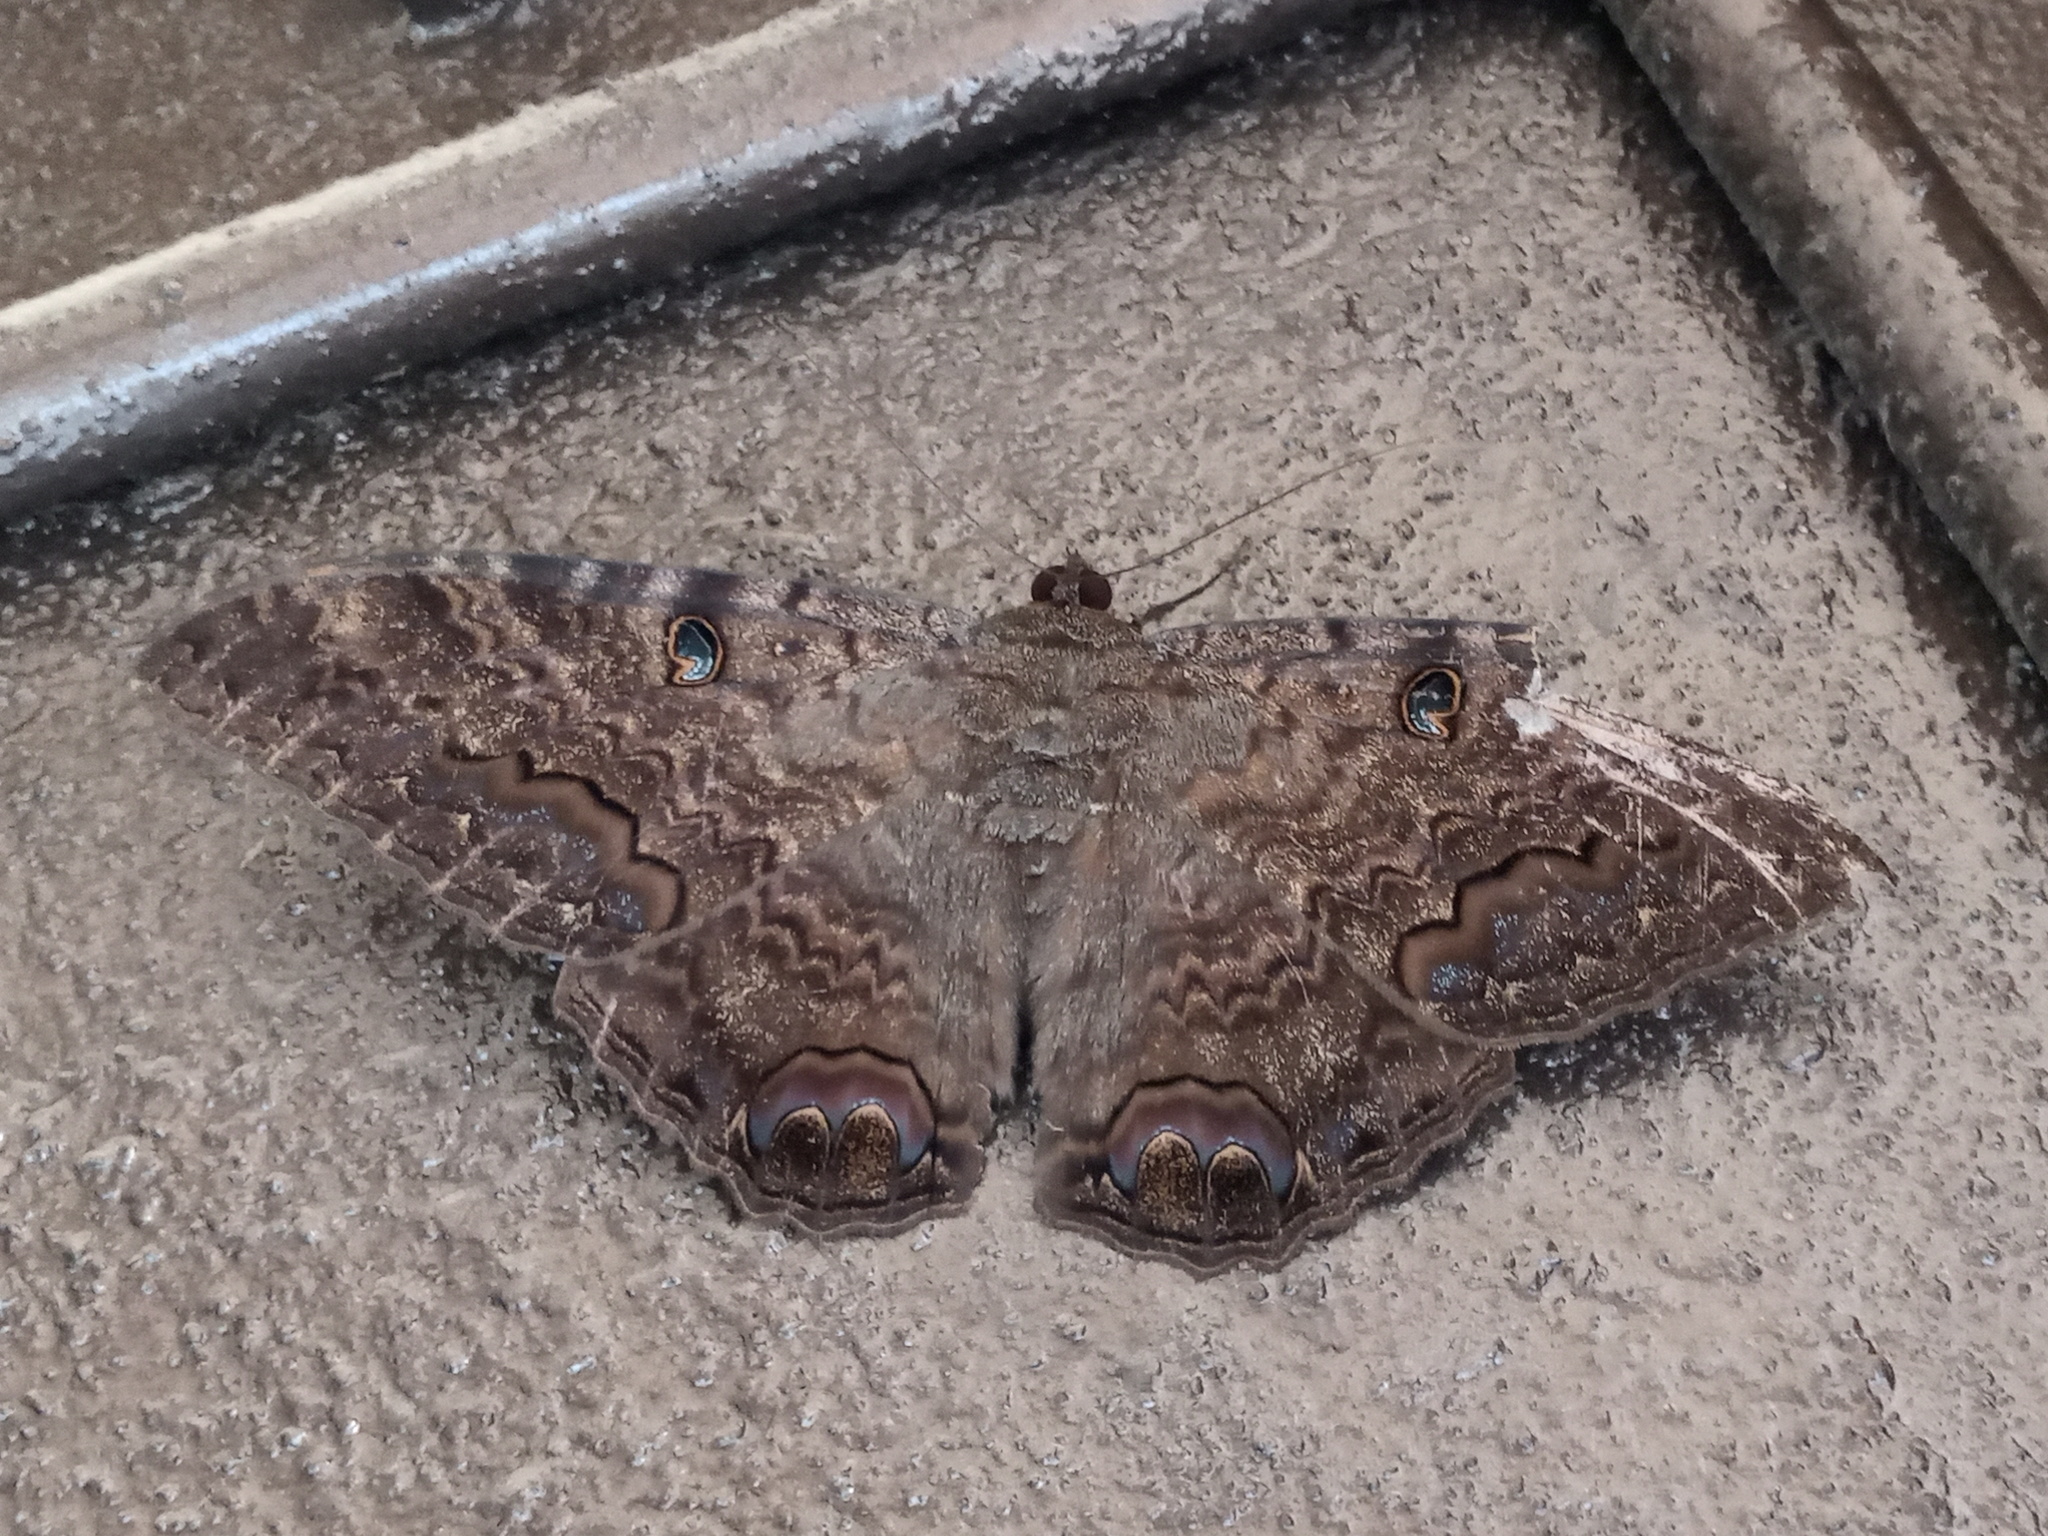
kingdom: Animalia
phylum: Arthropoda
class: Insecta
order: Lepidoptera
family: Erebidae
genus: Ascalapha
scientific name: Ascalapha odorata
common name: Black witch
